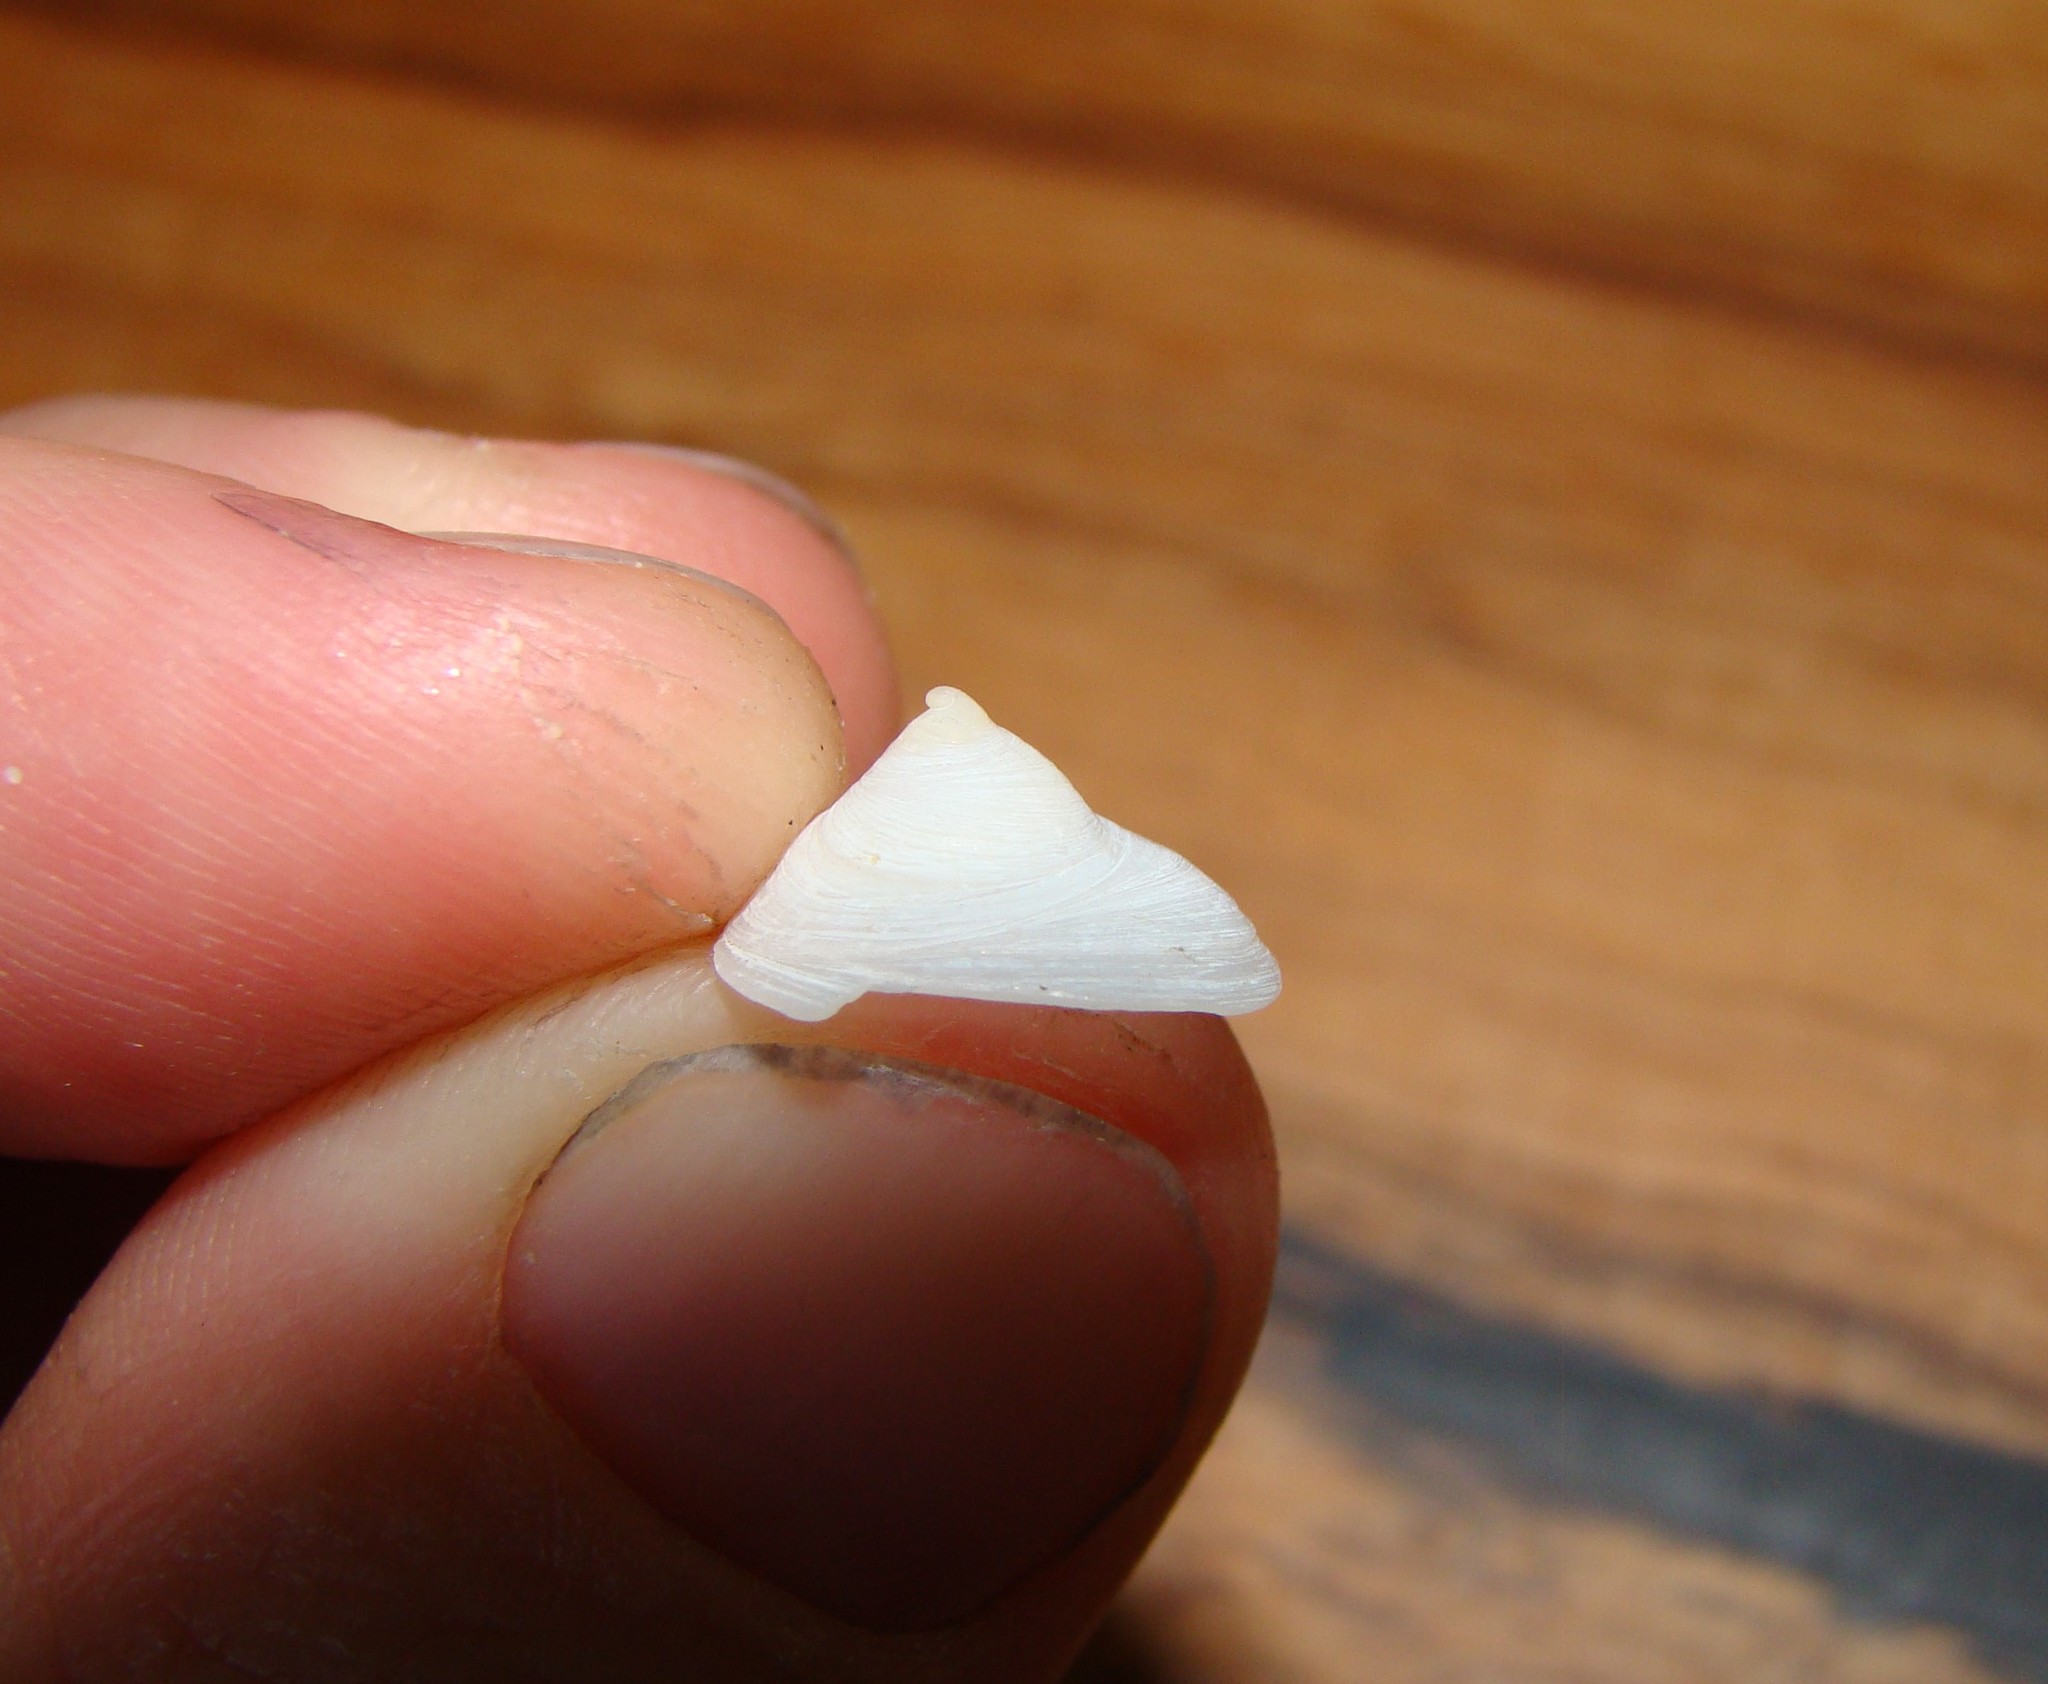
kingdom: Animalia
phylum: Mollusca
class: Gastropoda
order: Littorinimorpha
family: Calyptraeidae
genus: Sigapatella
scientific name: Sigapatella tenuis
